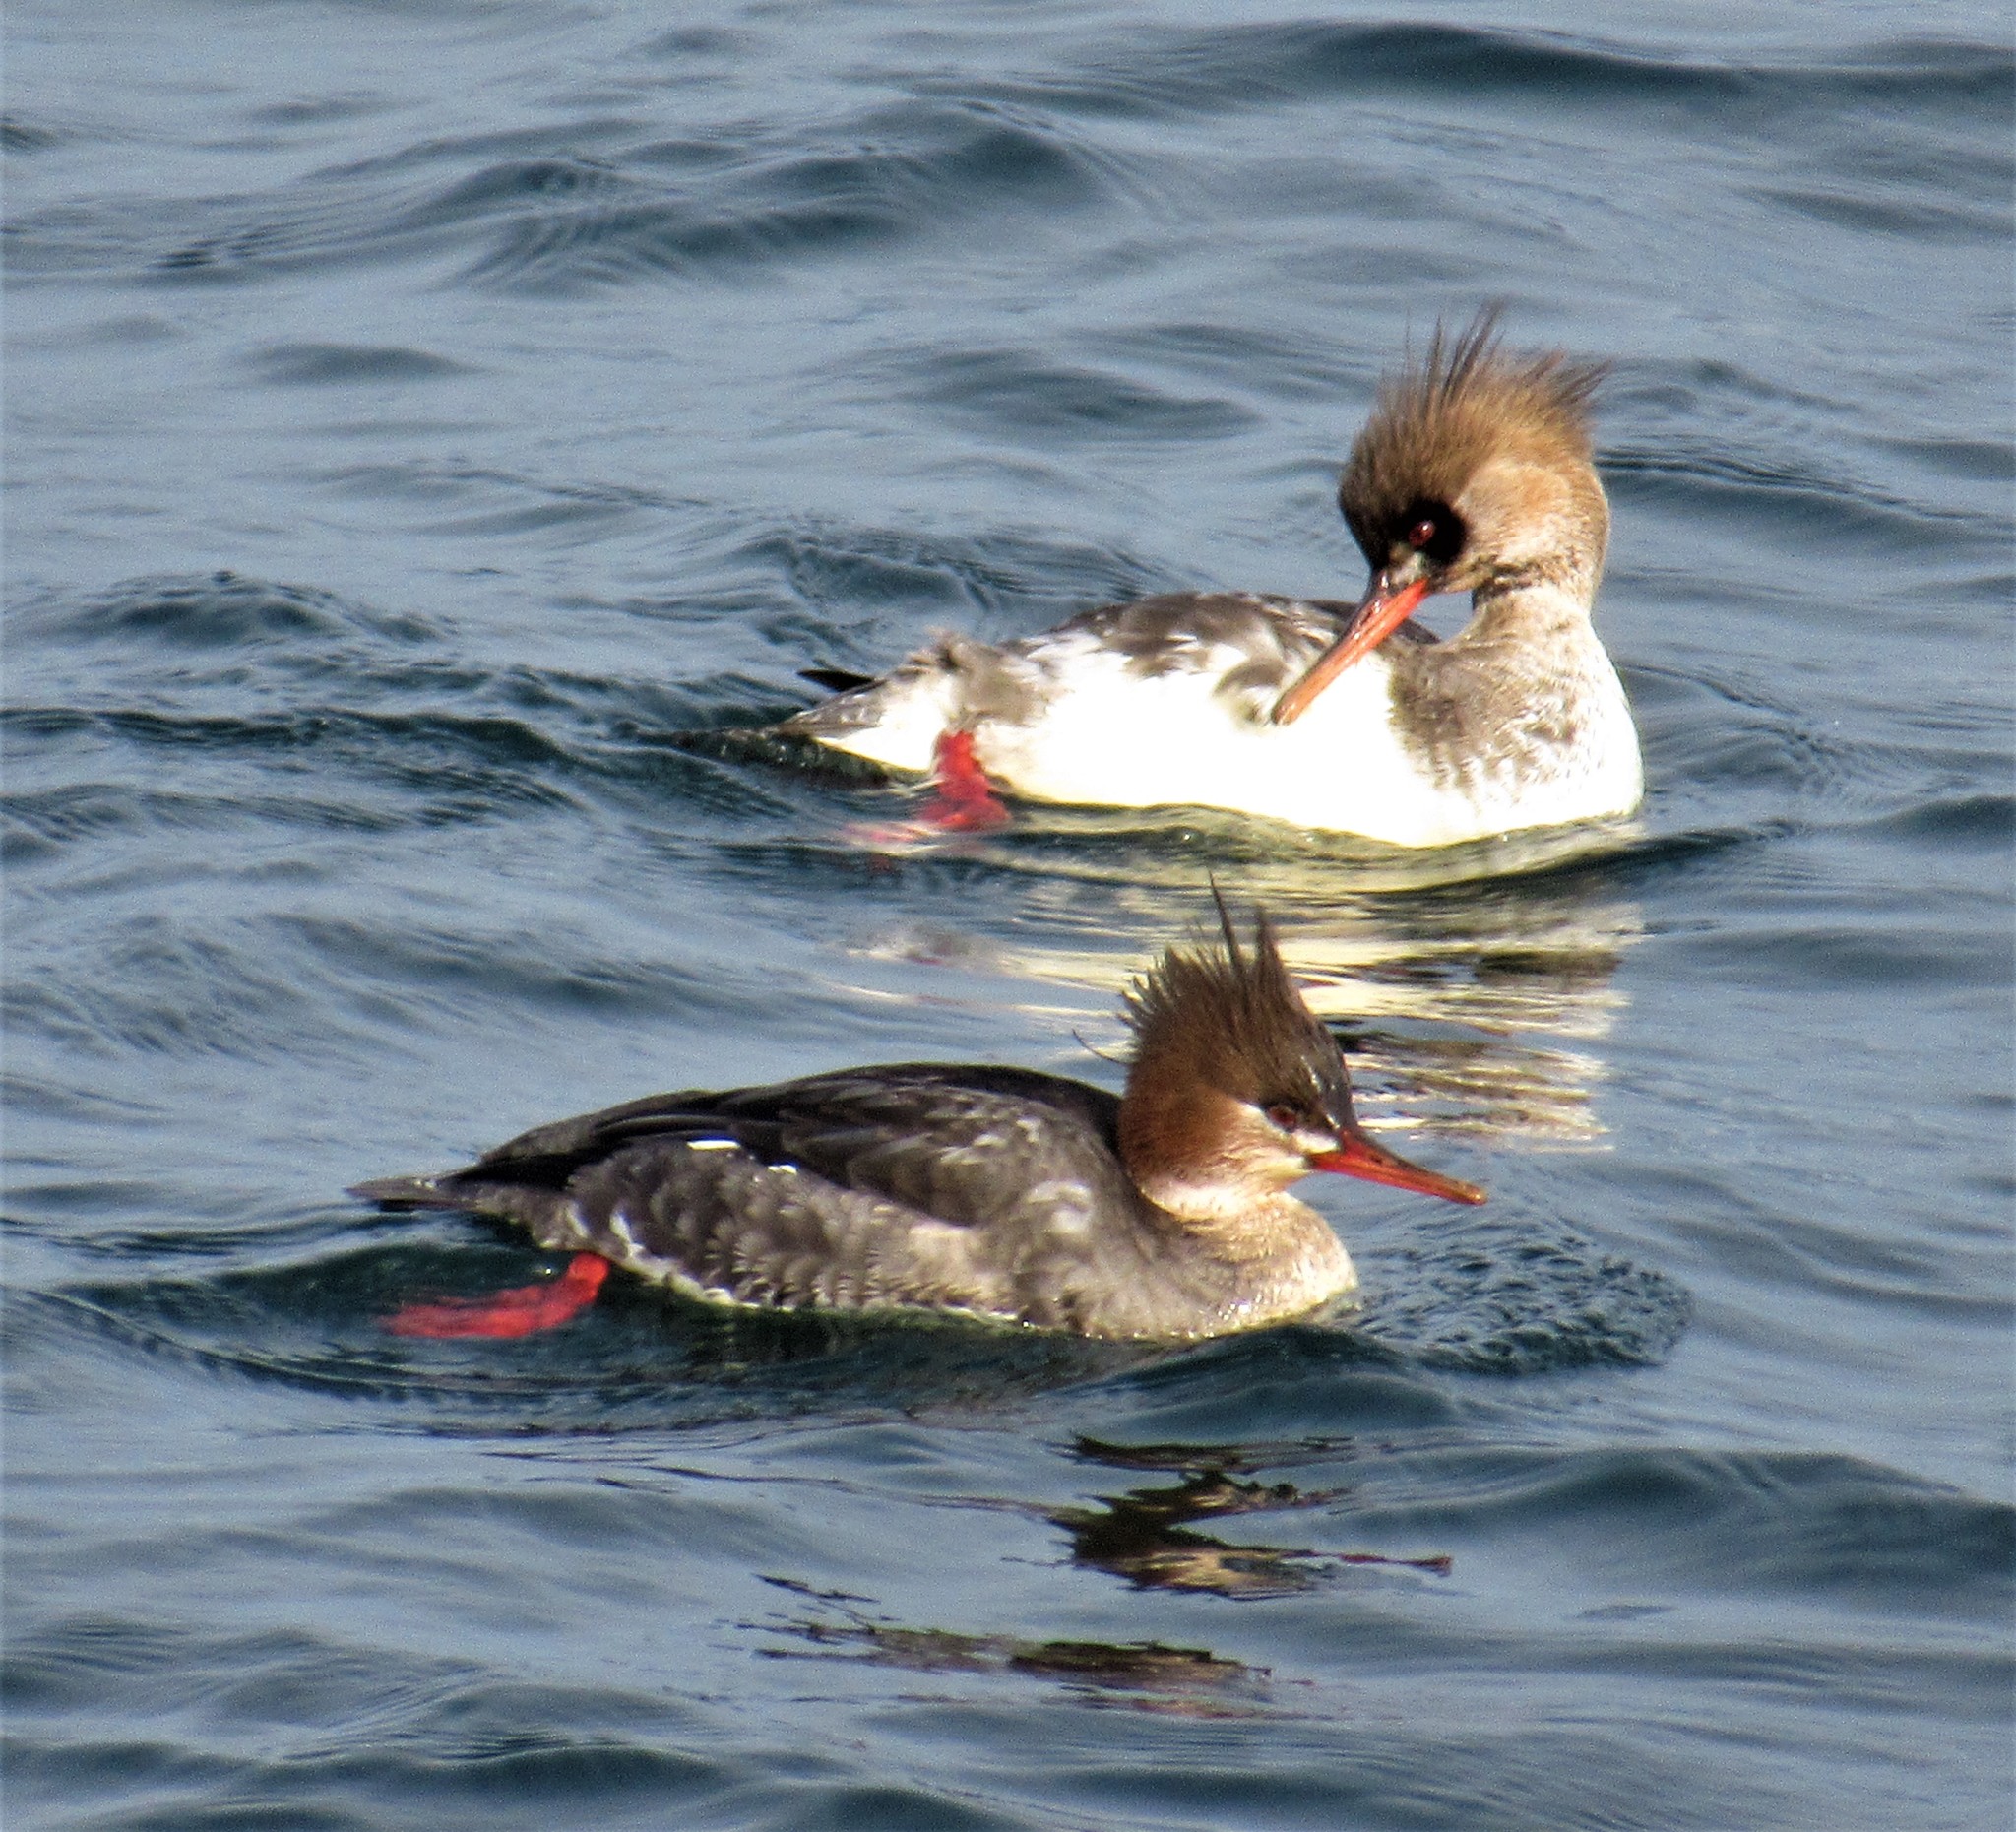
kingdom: Animalia
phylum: Chordata
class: Aves
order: Anseriformes
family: Anatidae
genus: Mergus
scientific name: Mergus serrator
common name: Red-breasted merganser
